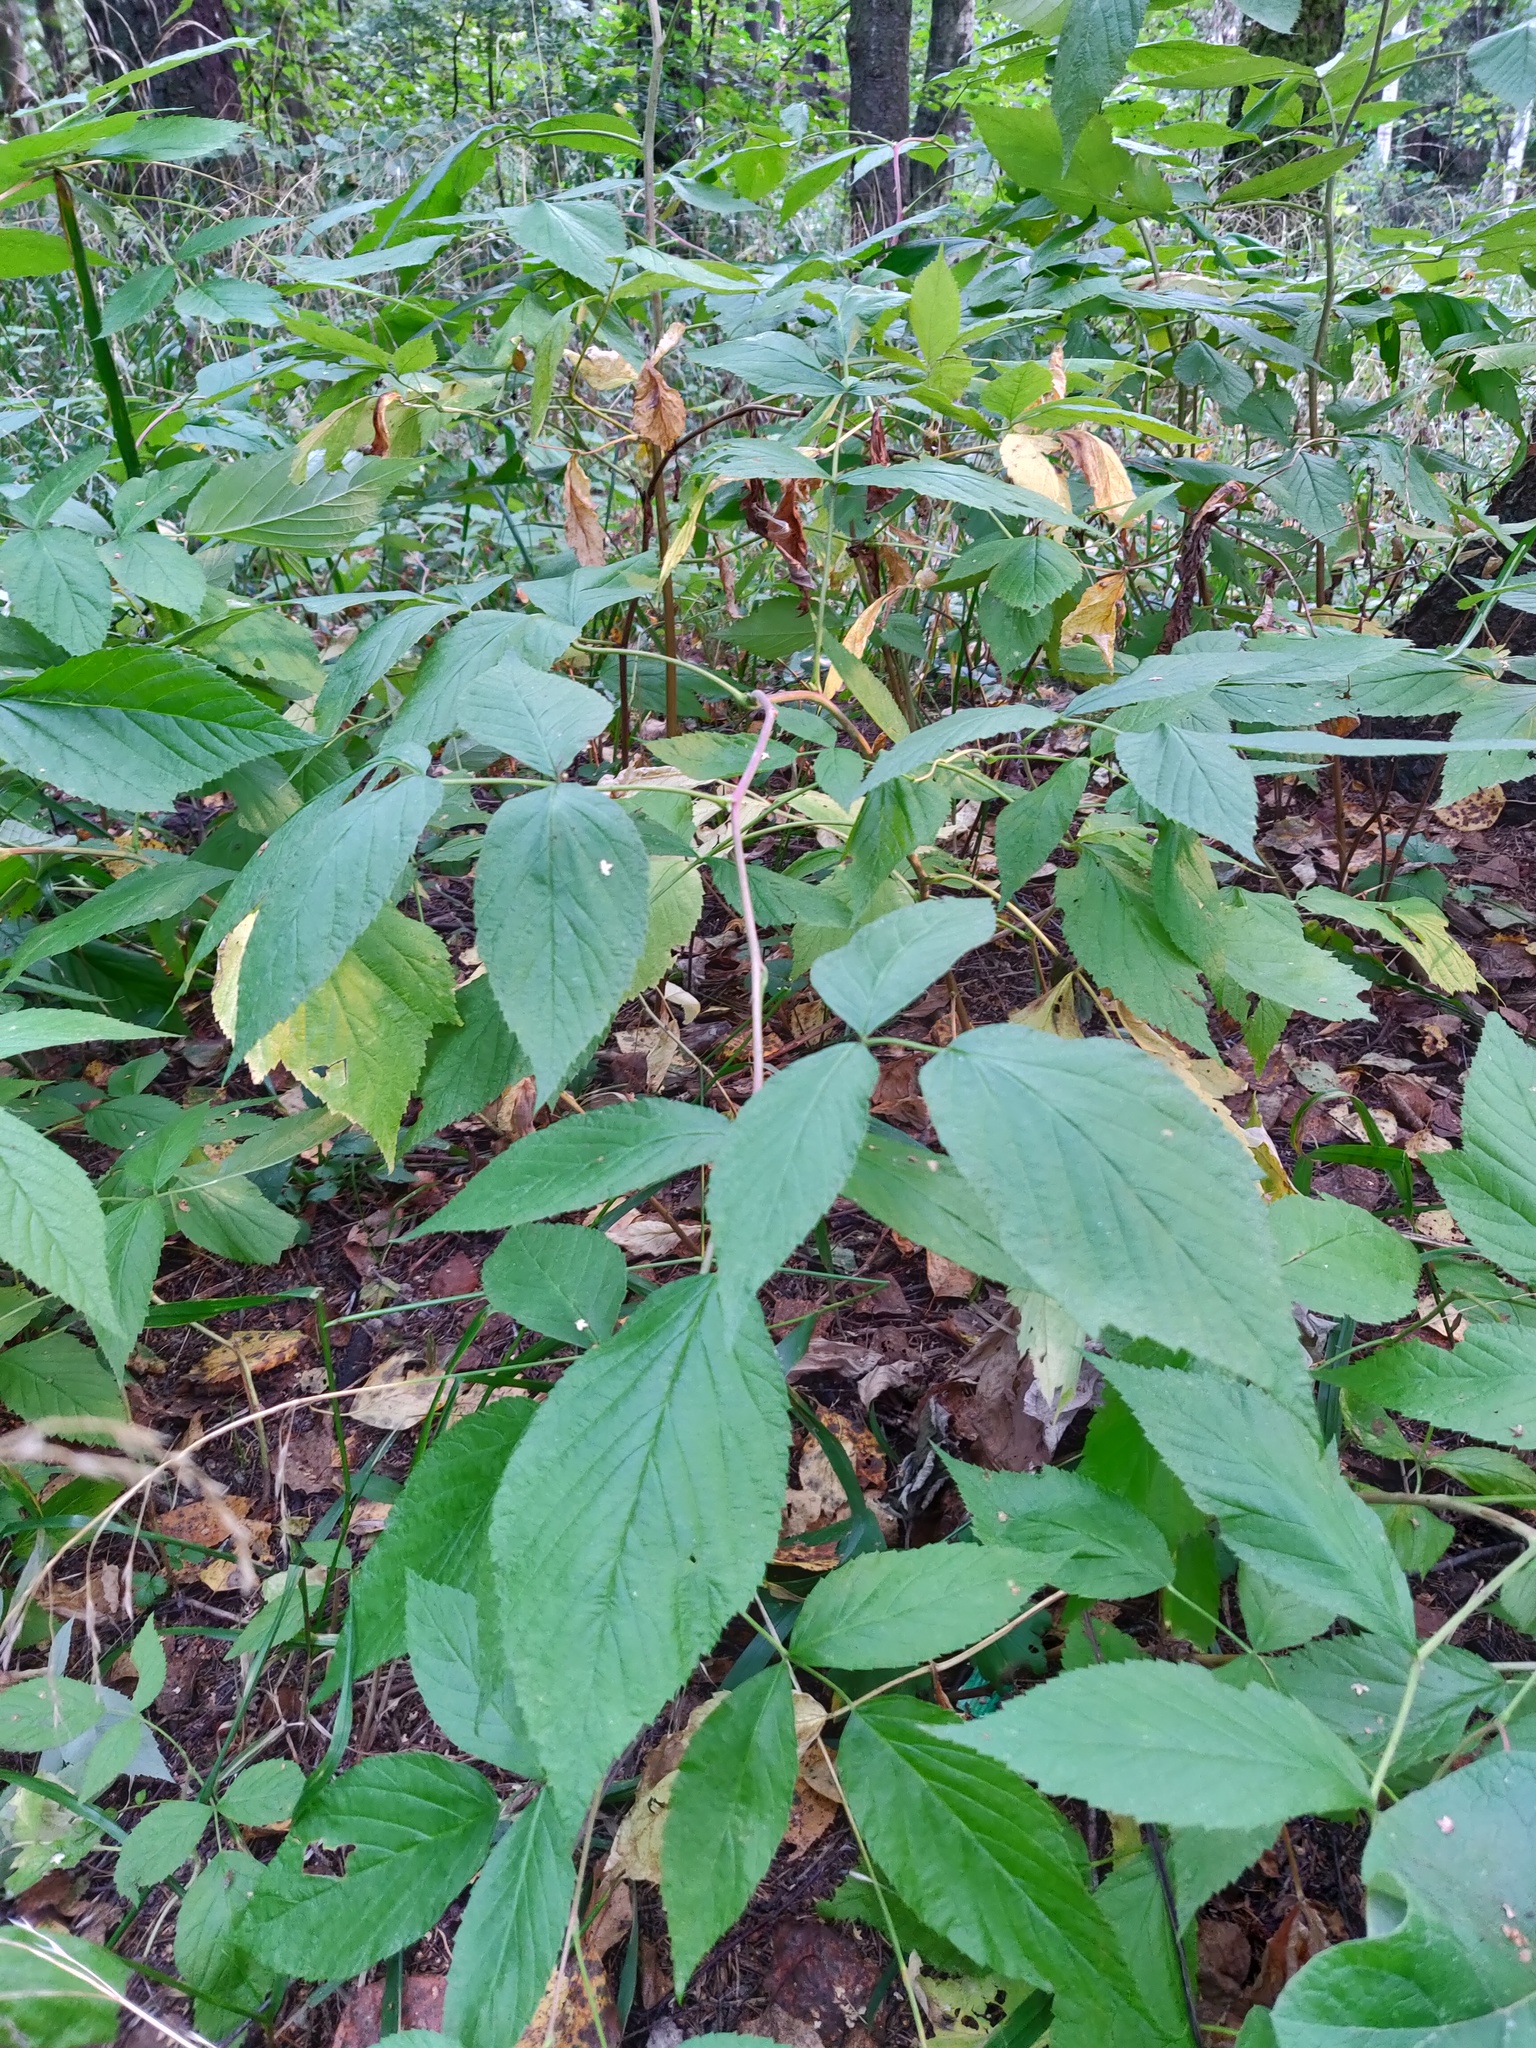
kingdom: Plantae
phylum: Tracheophyta
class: Magnoliopsida
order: Rosales
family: Rosaceae
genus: Rubus
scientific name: Rubus idaeus
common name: Raspberry
